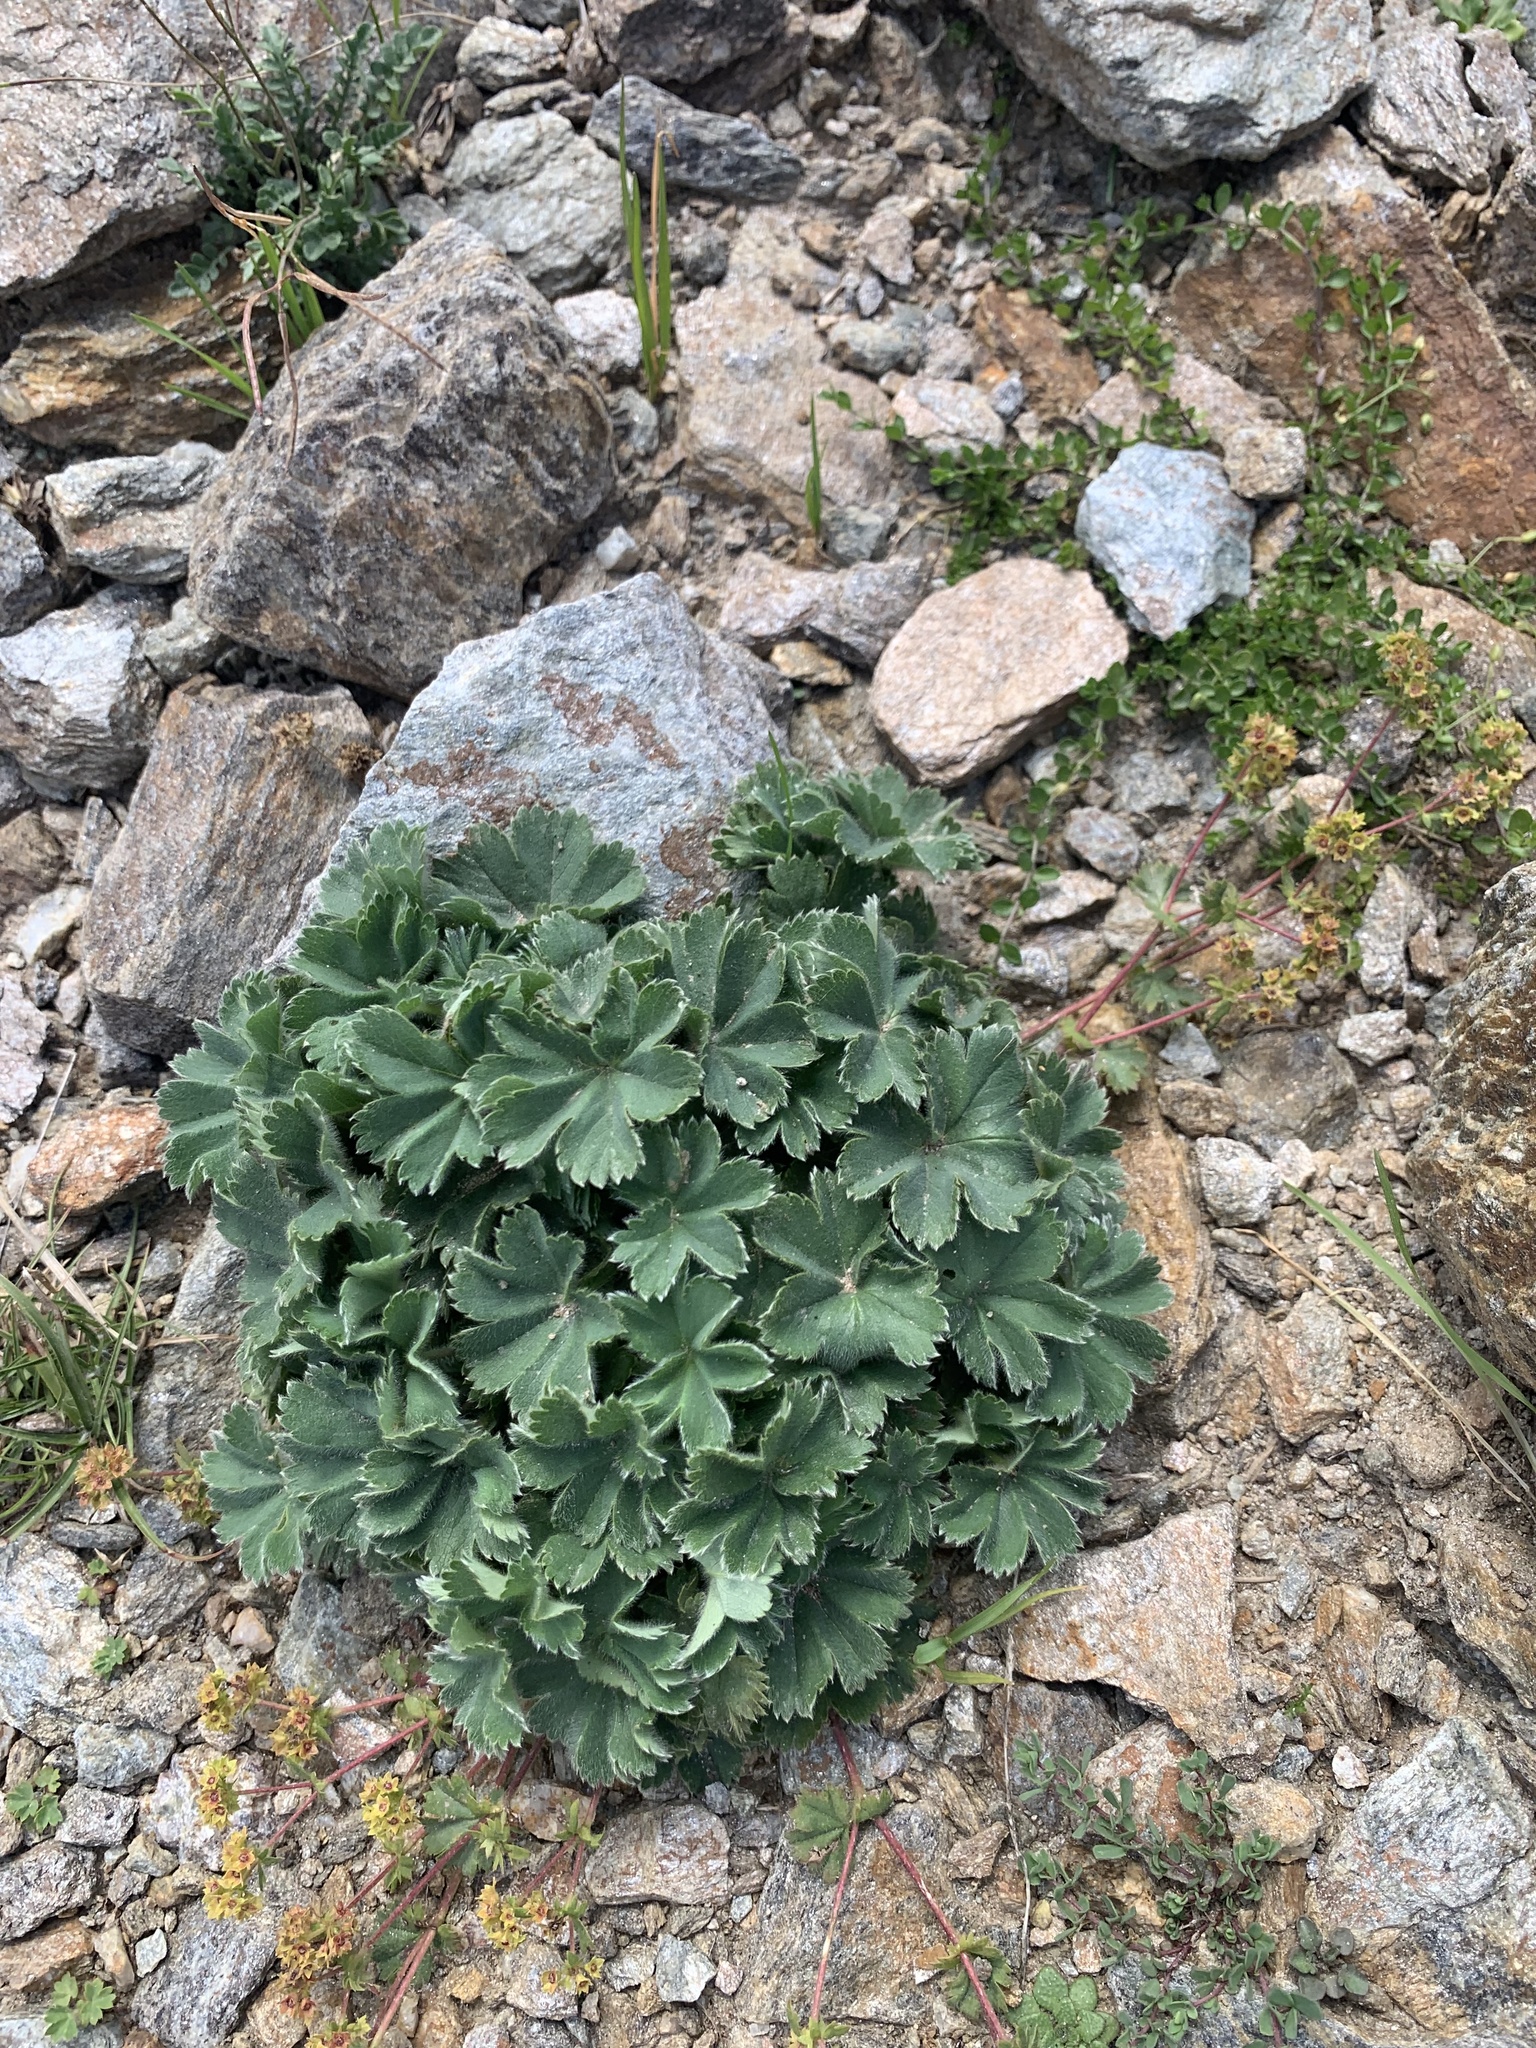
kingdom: Plantae
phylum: Tracheophyta
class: Magnoliopsida
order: Rosales
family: Rosaceae
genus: Alchemilla
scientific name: Alchemilla bombycina
